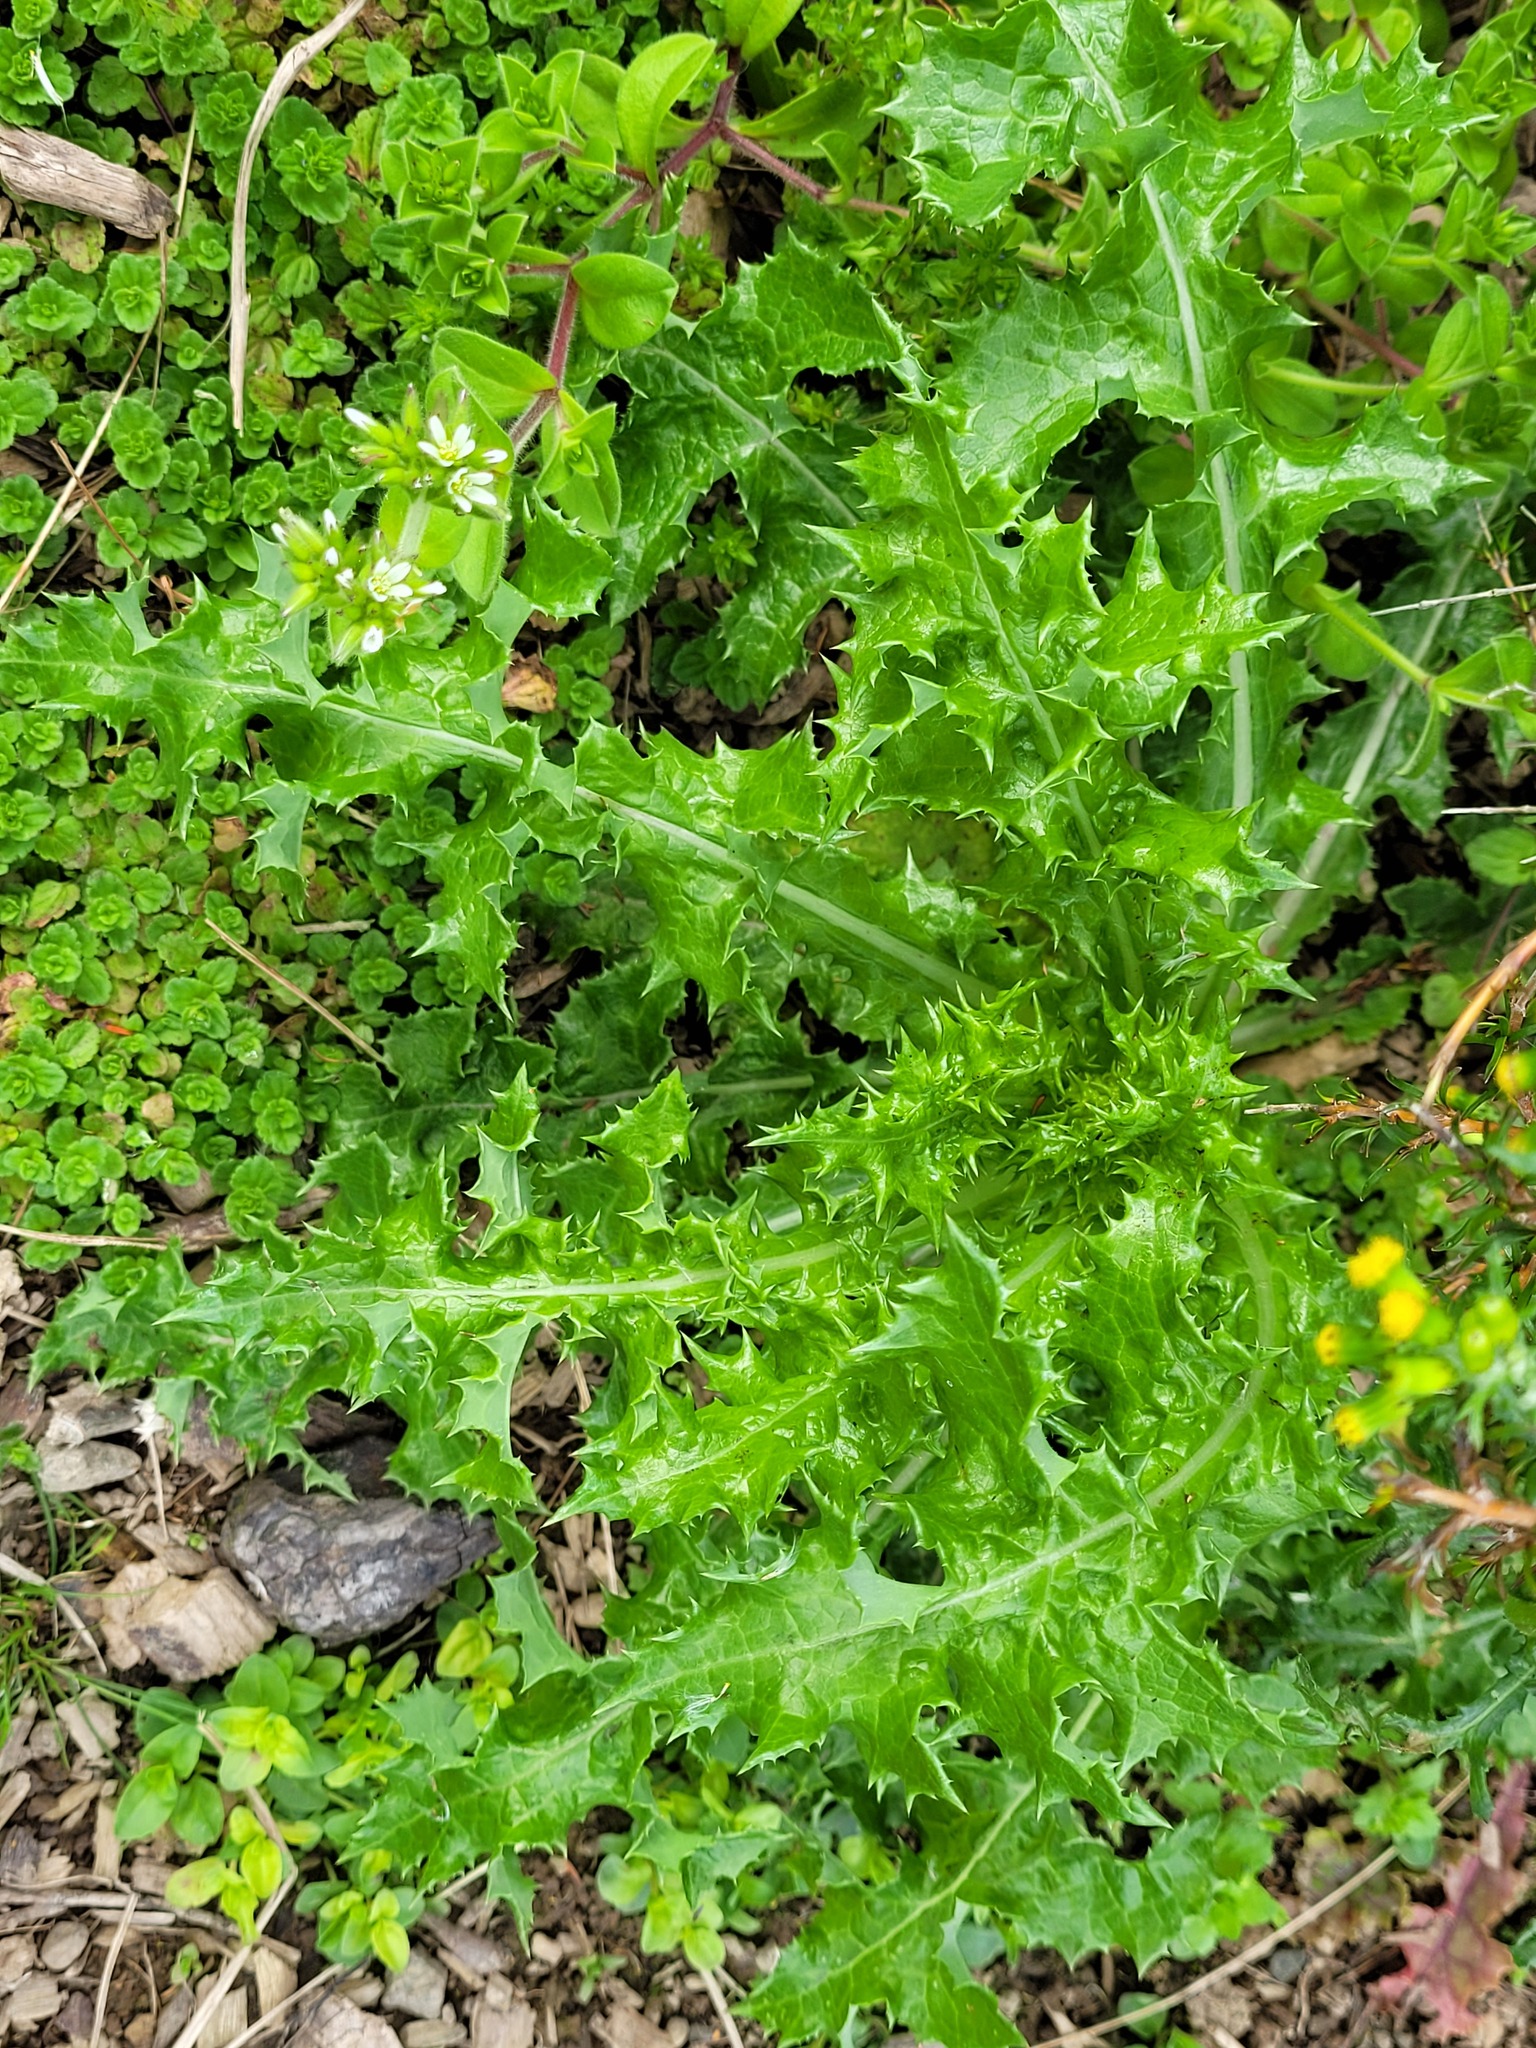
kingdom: Plantae
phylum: Tracheophyta
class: Magnoliopsida
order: Asterales
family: Asteraceae
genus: Sonchus
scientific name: Sonchus asper
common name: Prickly sow-thistle
